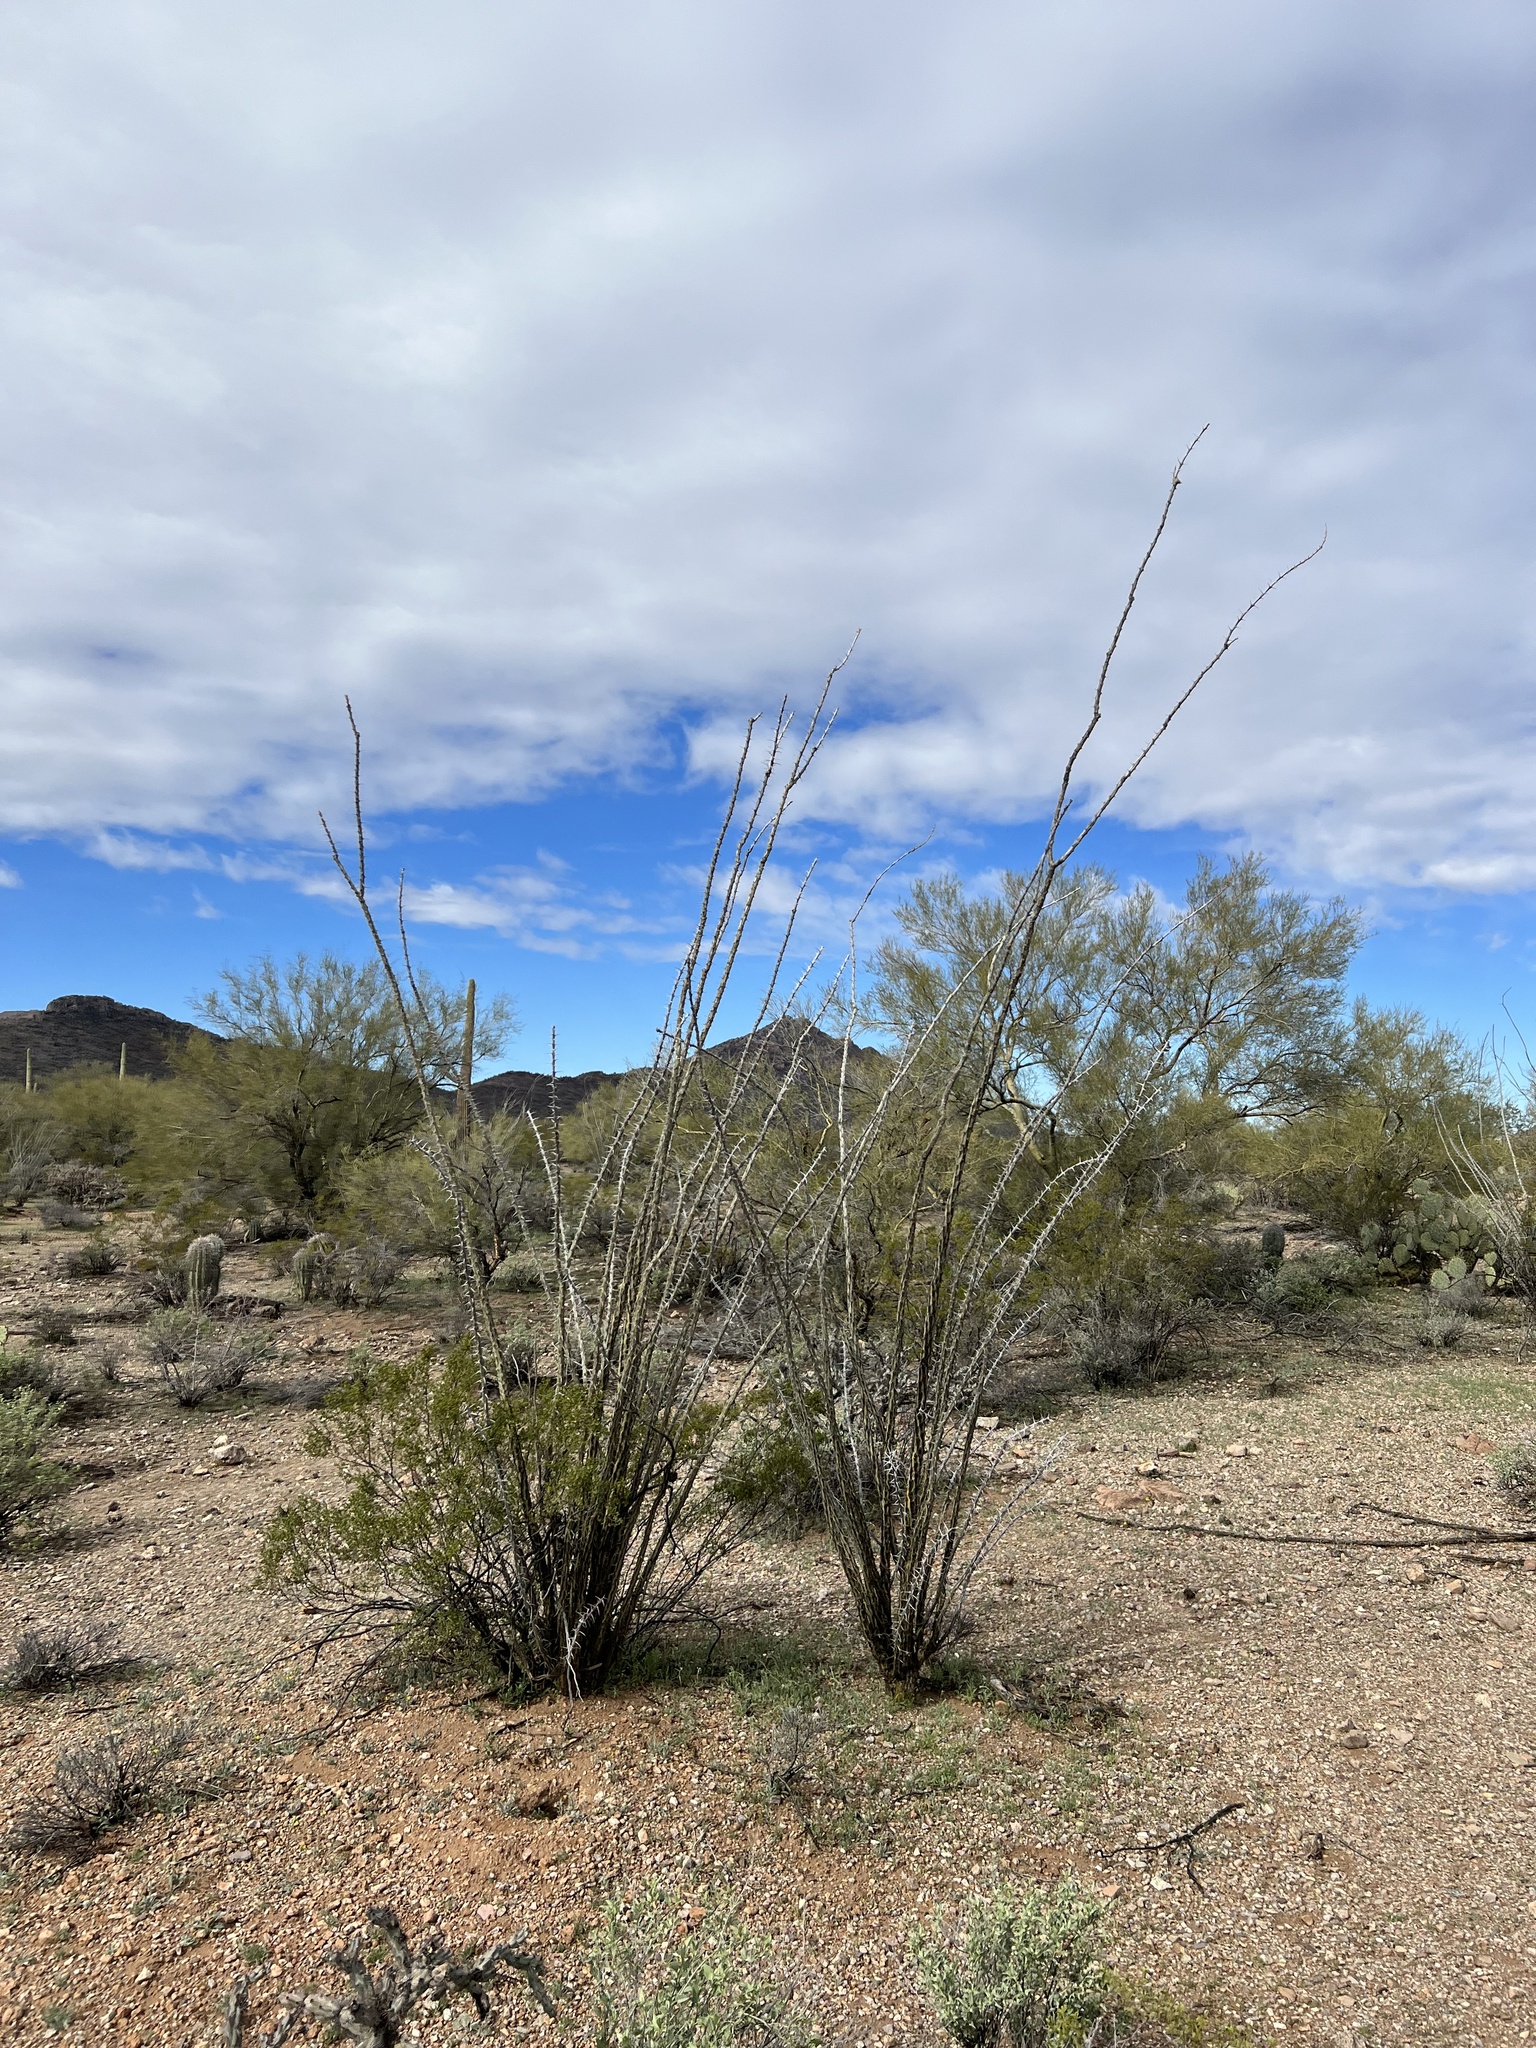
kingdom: Plantae
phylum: Tracheophyta
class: Magnoliopsida
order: Ericales
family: Fouquieriaceae
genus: Fouquieria
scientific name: Fouquieria splendens
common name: Vine-cactus
